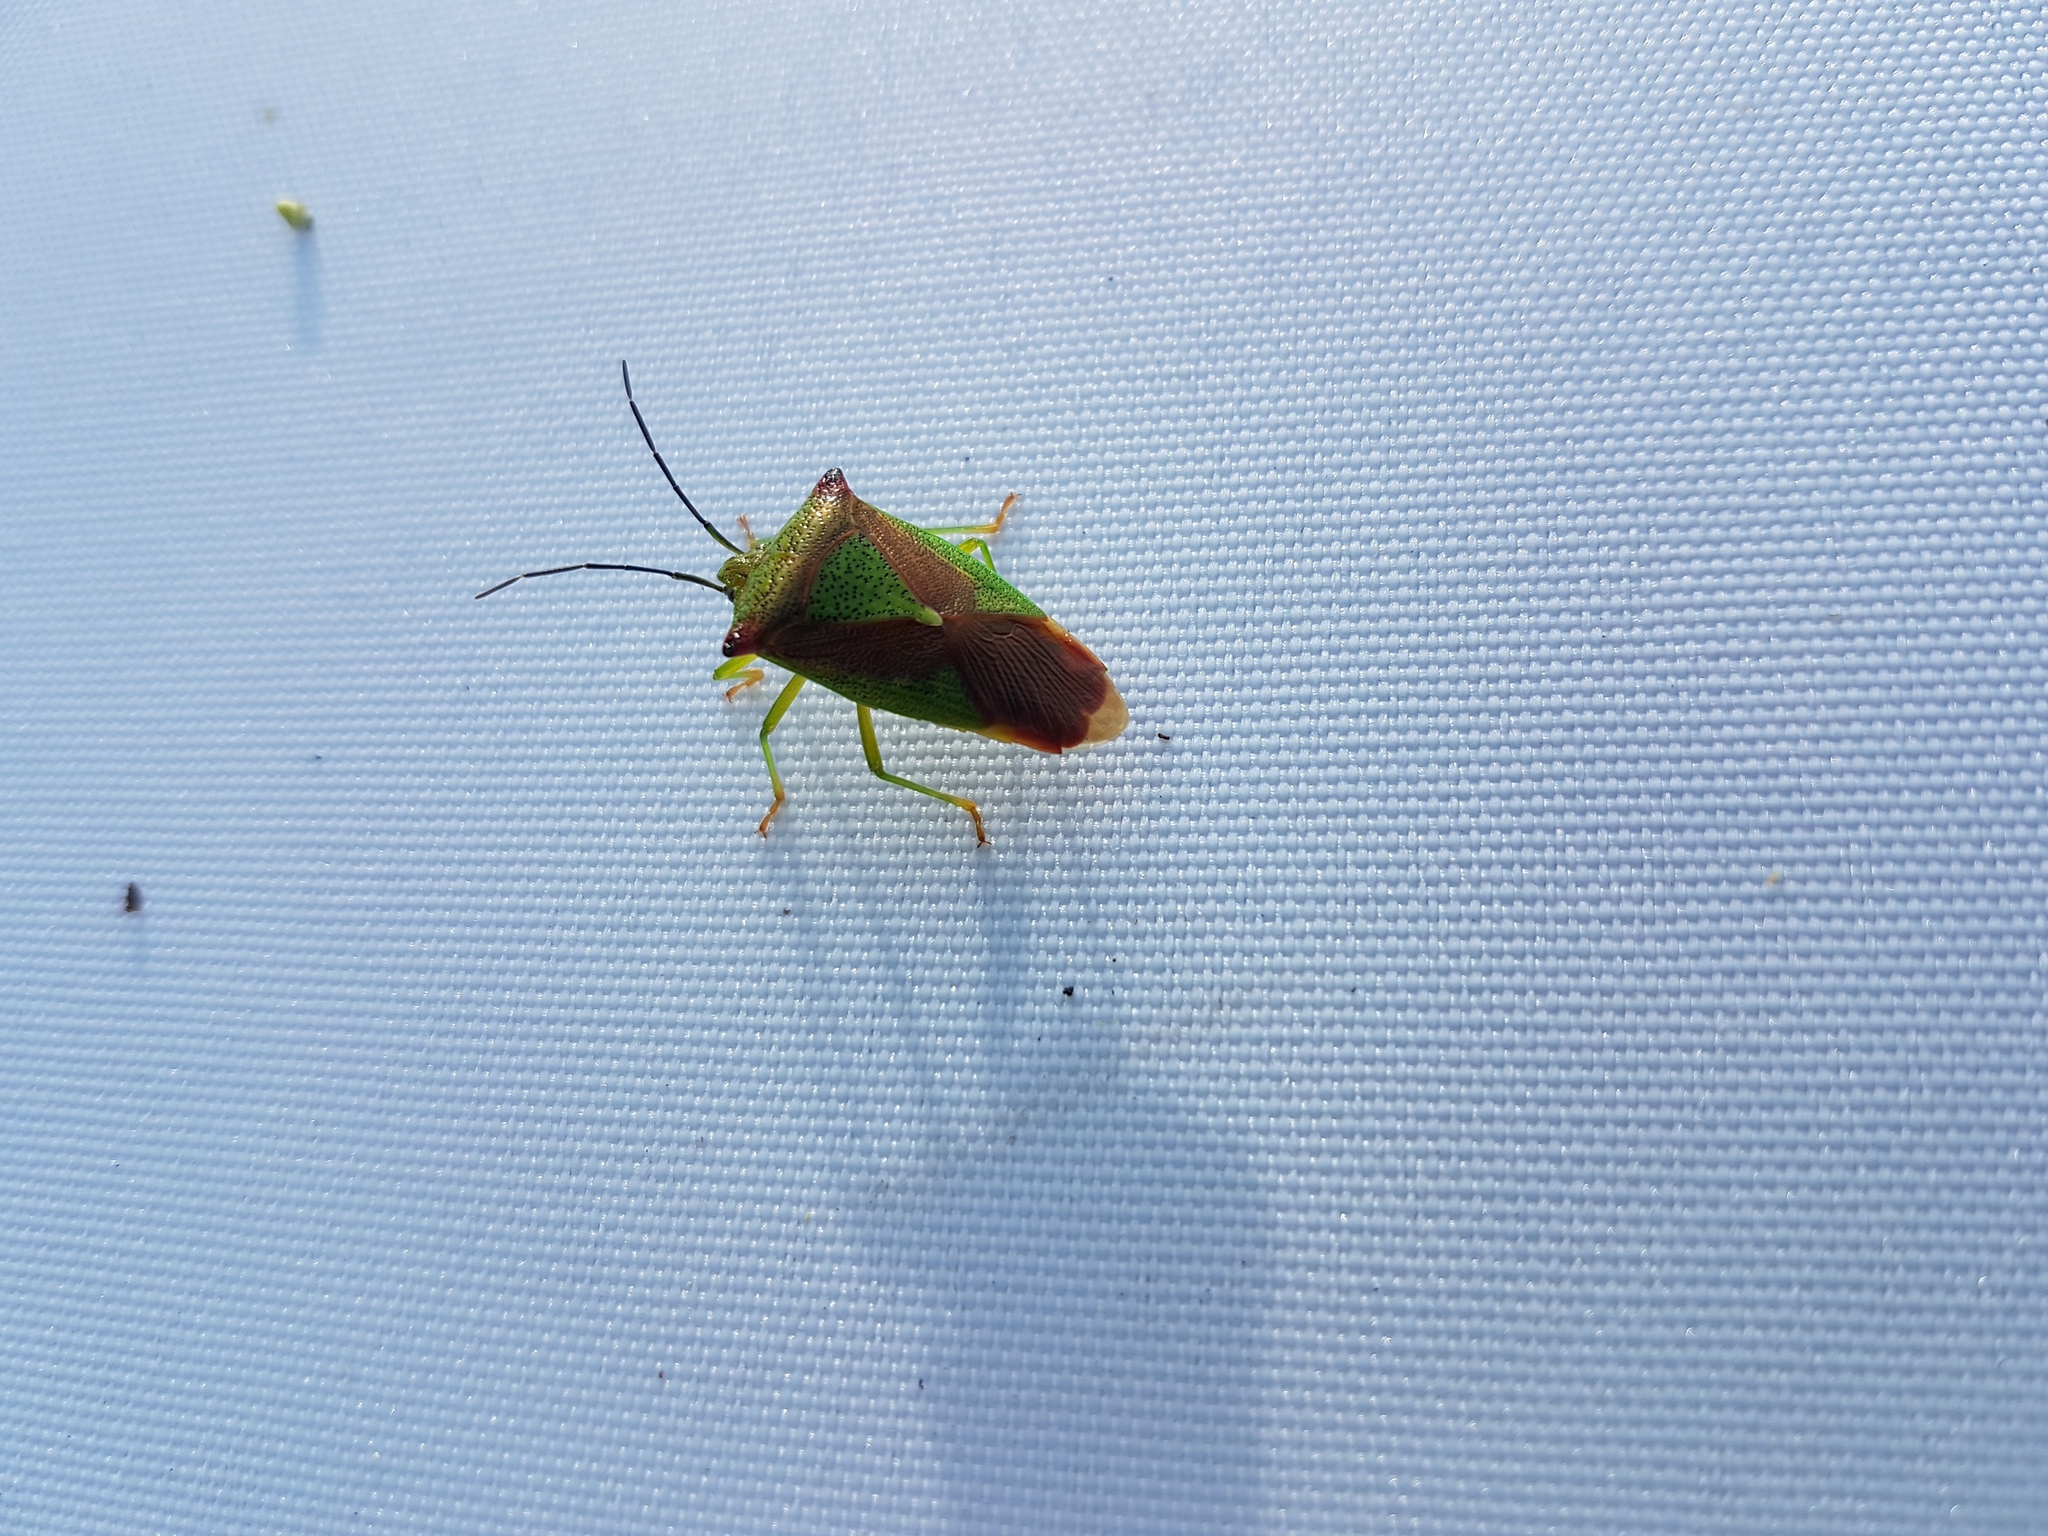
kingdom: Animalia
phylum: Arthropoda
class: Insecta
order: Hemiptera
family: Acanthosomatidae
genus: Acanthosoma
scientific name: Acanthosoma haemorrhoidale
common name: Hawthorn shieldbug
